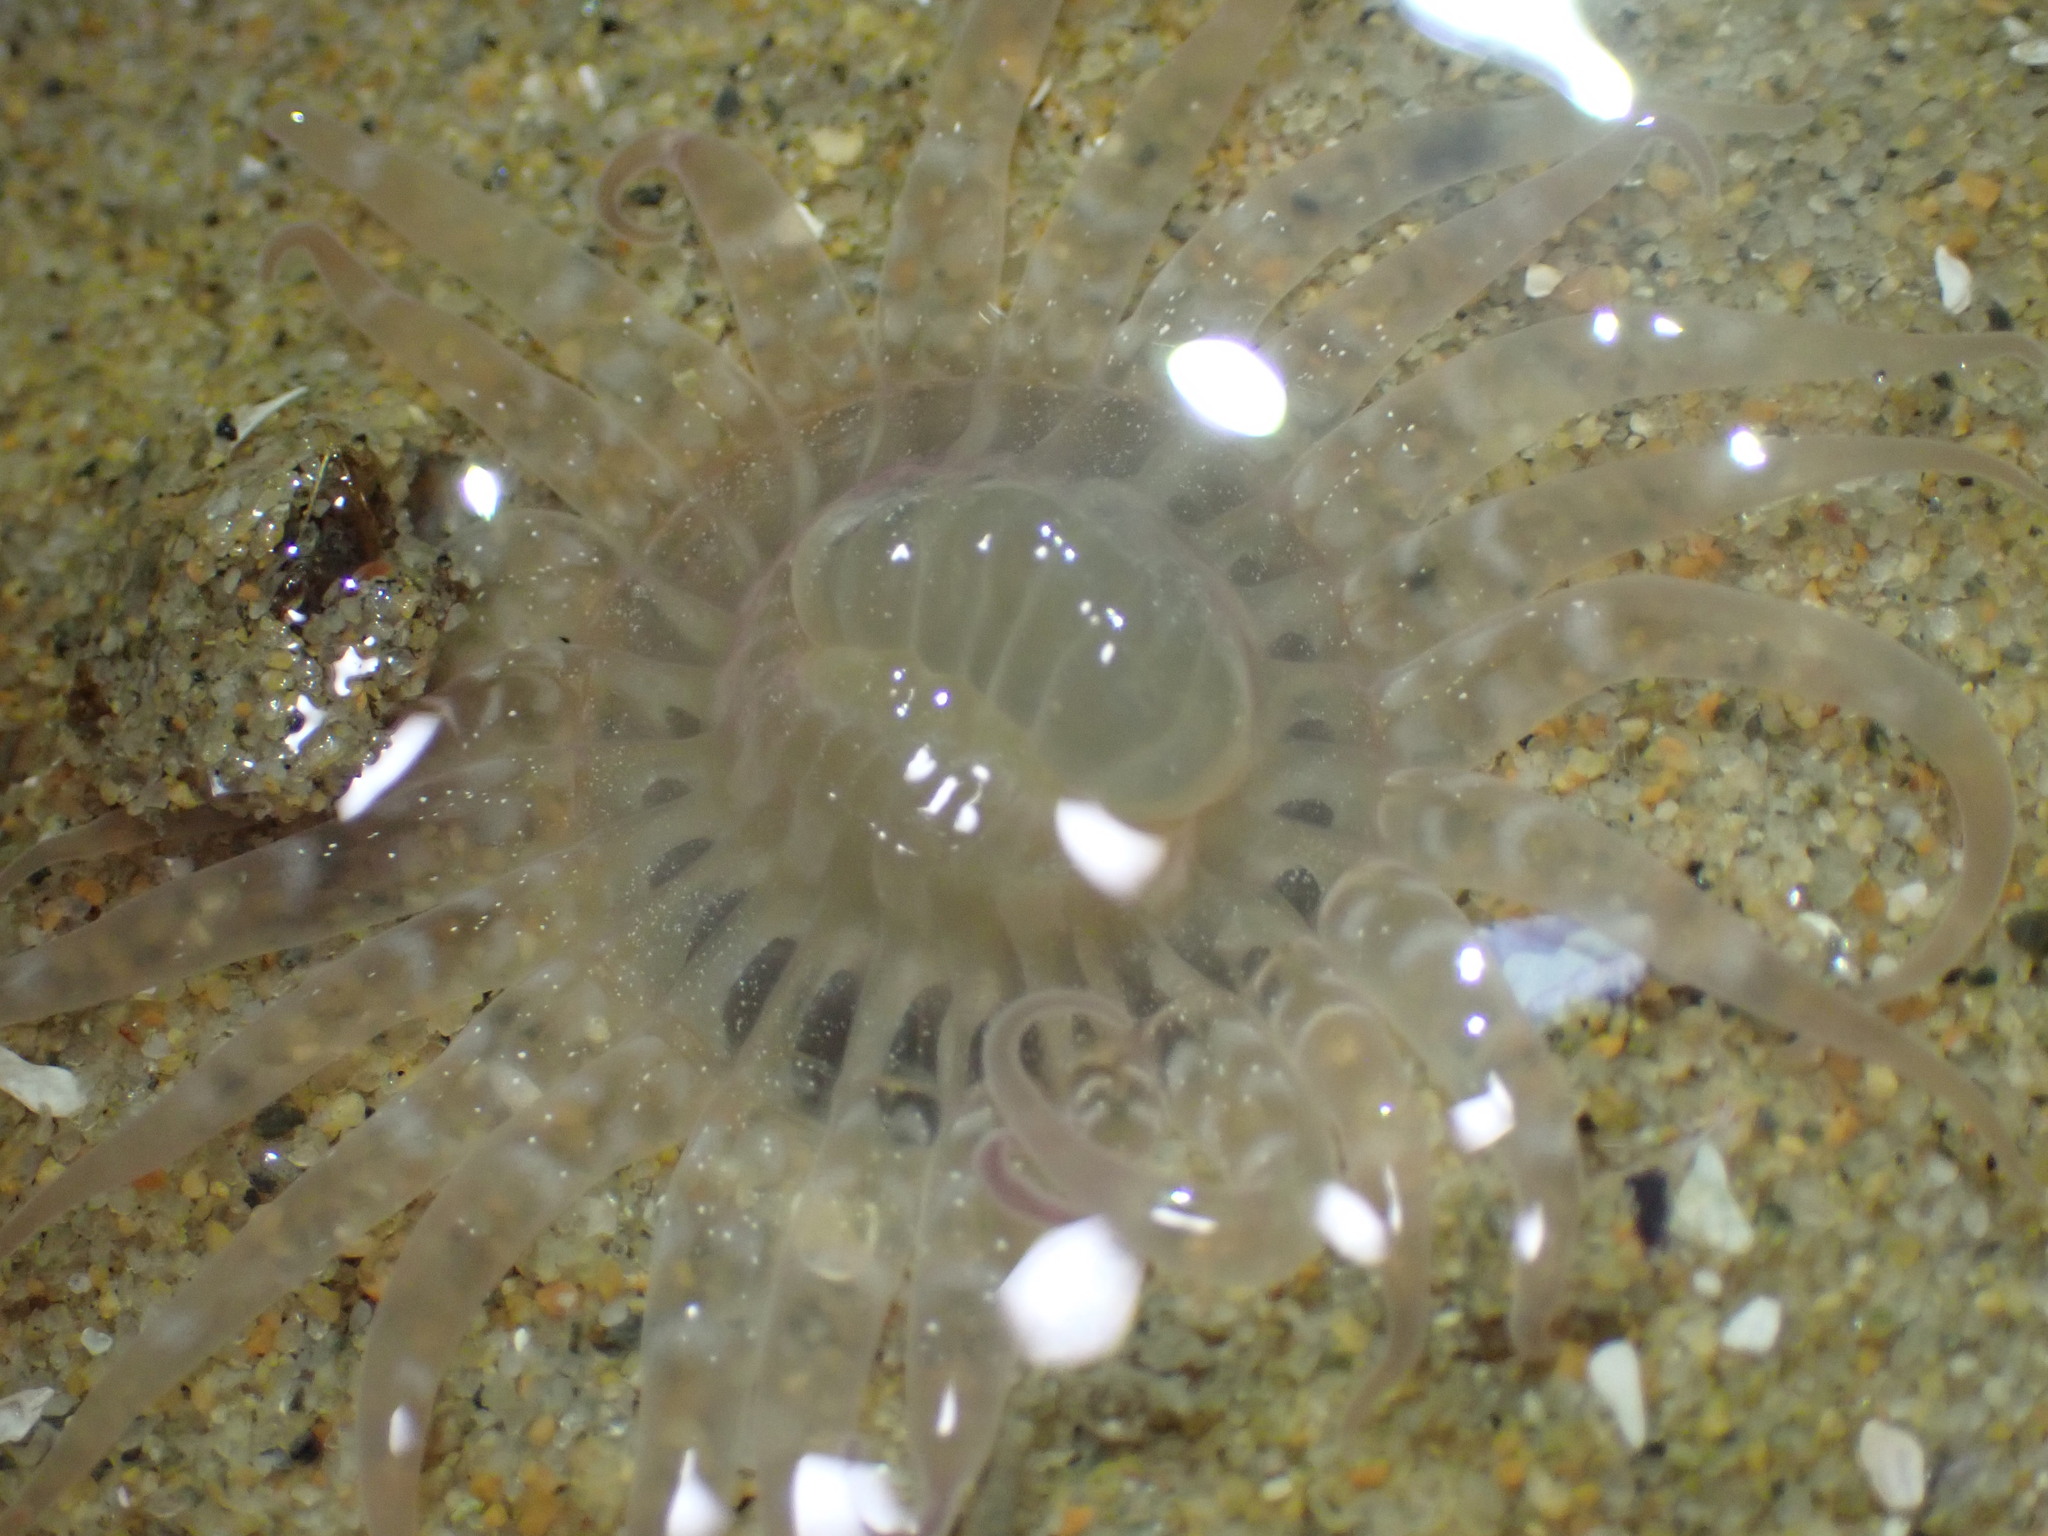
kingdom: Animalia
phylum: Cnidaria
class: Anthozoa
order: Actiniaria
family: Harenactidae
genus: Harenactis
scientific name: Harenactis attenuata
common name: Giant burrowing anemone
